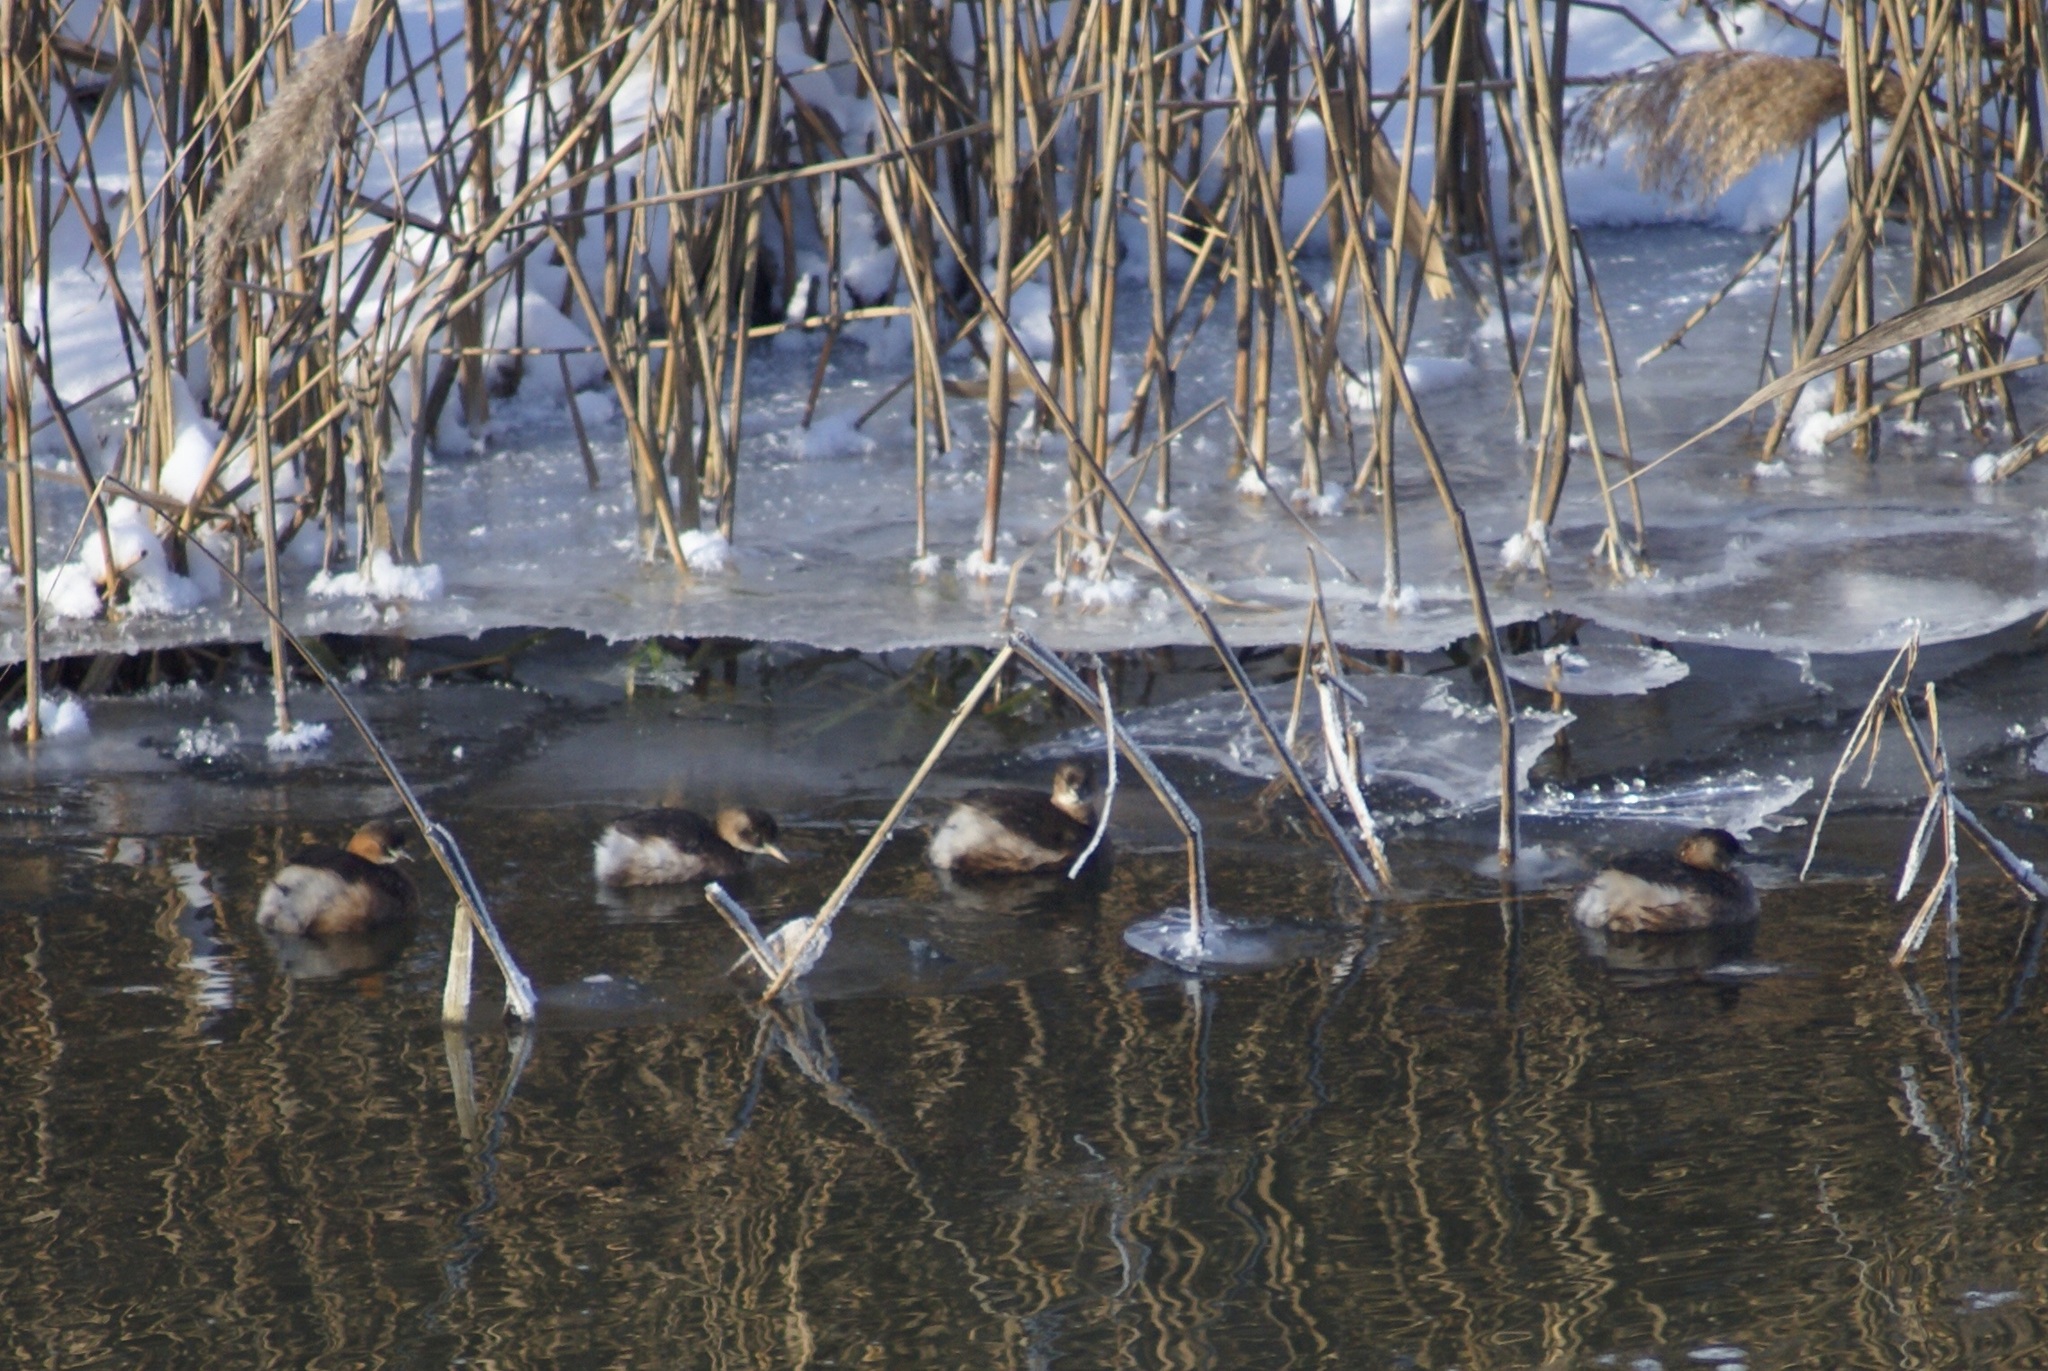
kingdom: Animalia
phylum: Chordata
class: Aves
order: Podicipediformes
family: Podicipedidae
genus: Tachybaptus
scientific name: Tachybaptus ruficollis
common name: Little grebe
